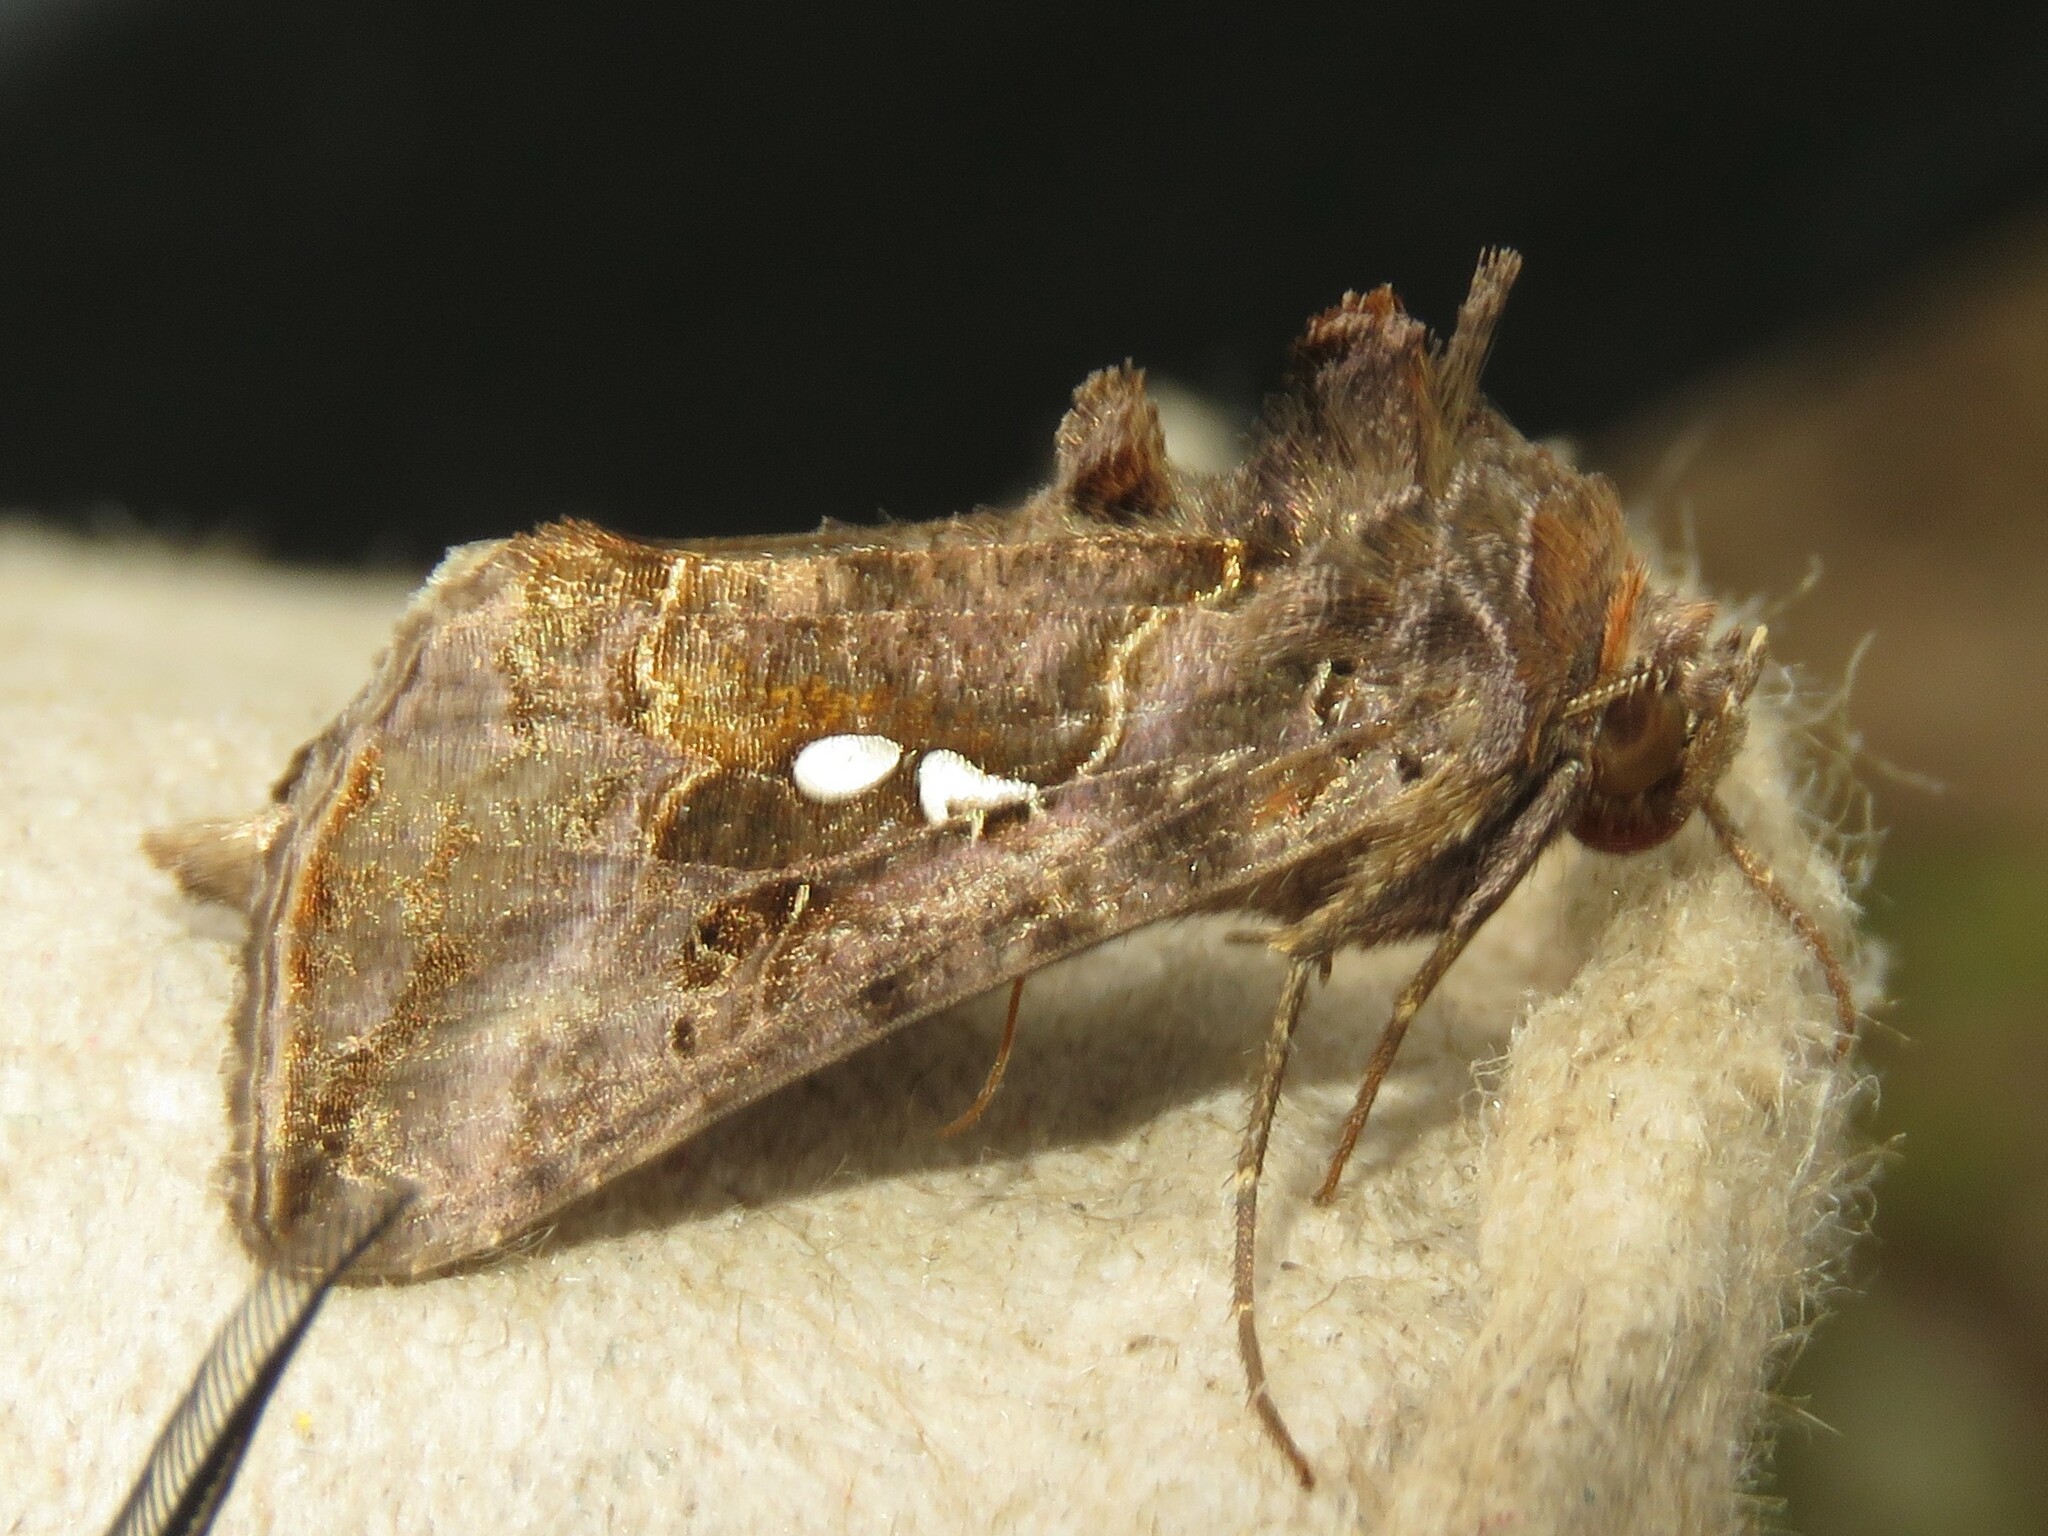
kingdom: Animalia
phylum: Arthropoda
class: Insecta
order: Lepidoptera
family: Noctuidae
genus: Autographa
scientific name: Autographa precationis
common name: Common looper moth
